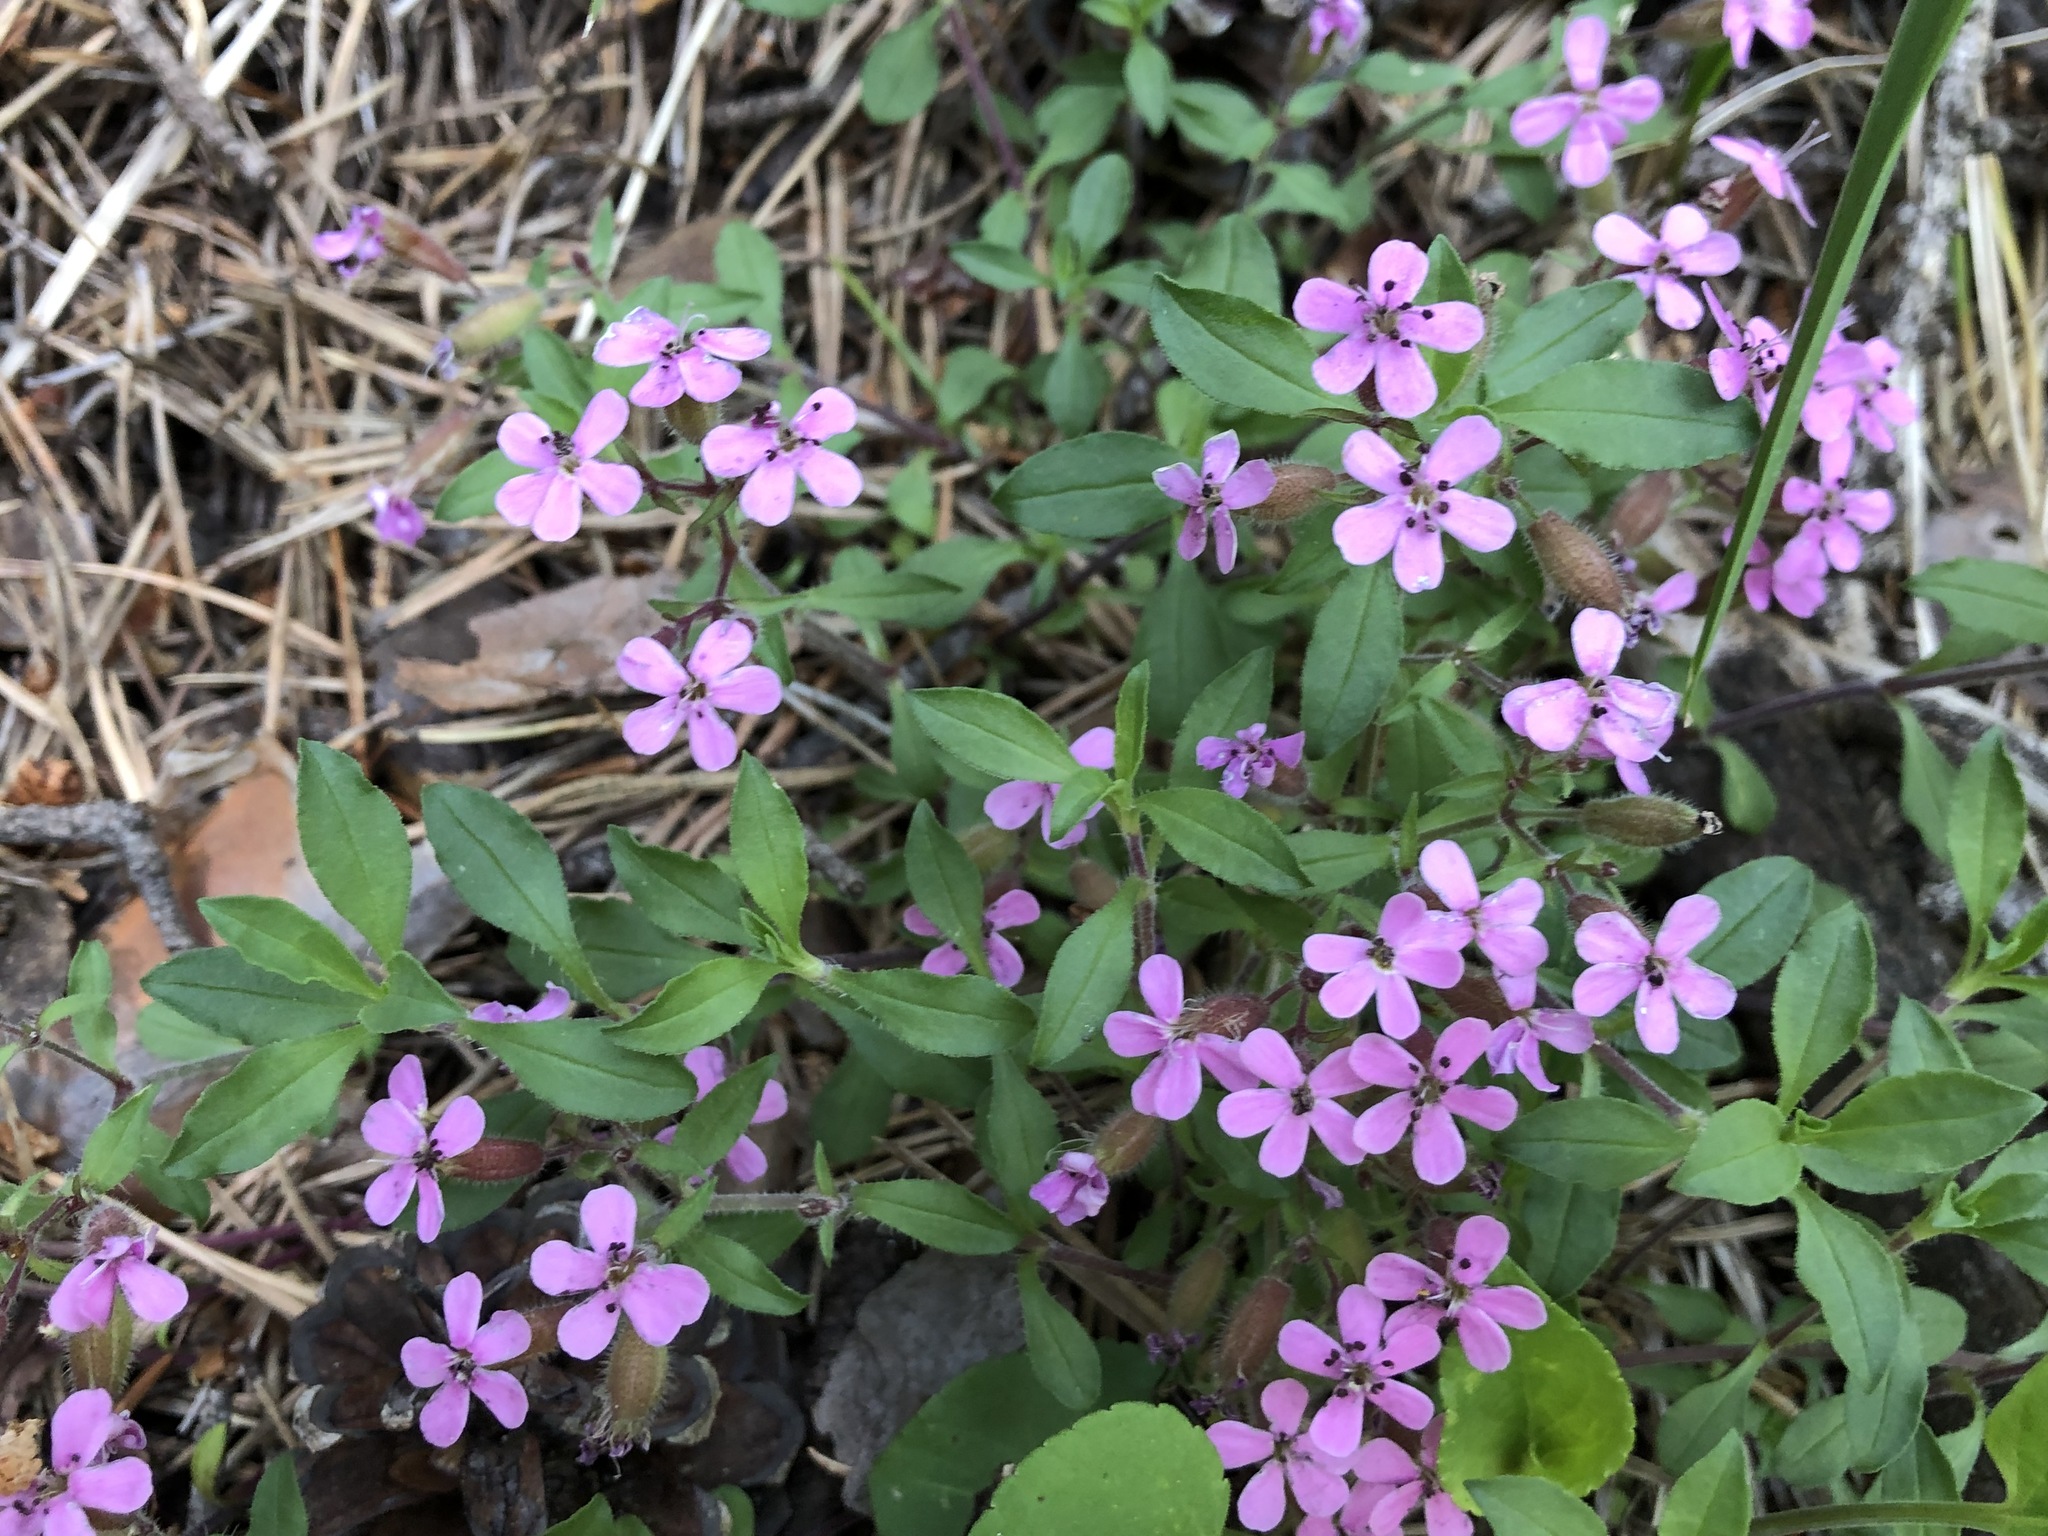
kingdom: Plantae
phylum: Tracheophyta
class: Magnoliopsida
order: Caryophyllales
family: Caryophyllaceae
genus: Saponaria
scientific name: Saponaria ocymoides
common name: Rock soapwort
